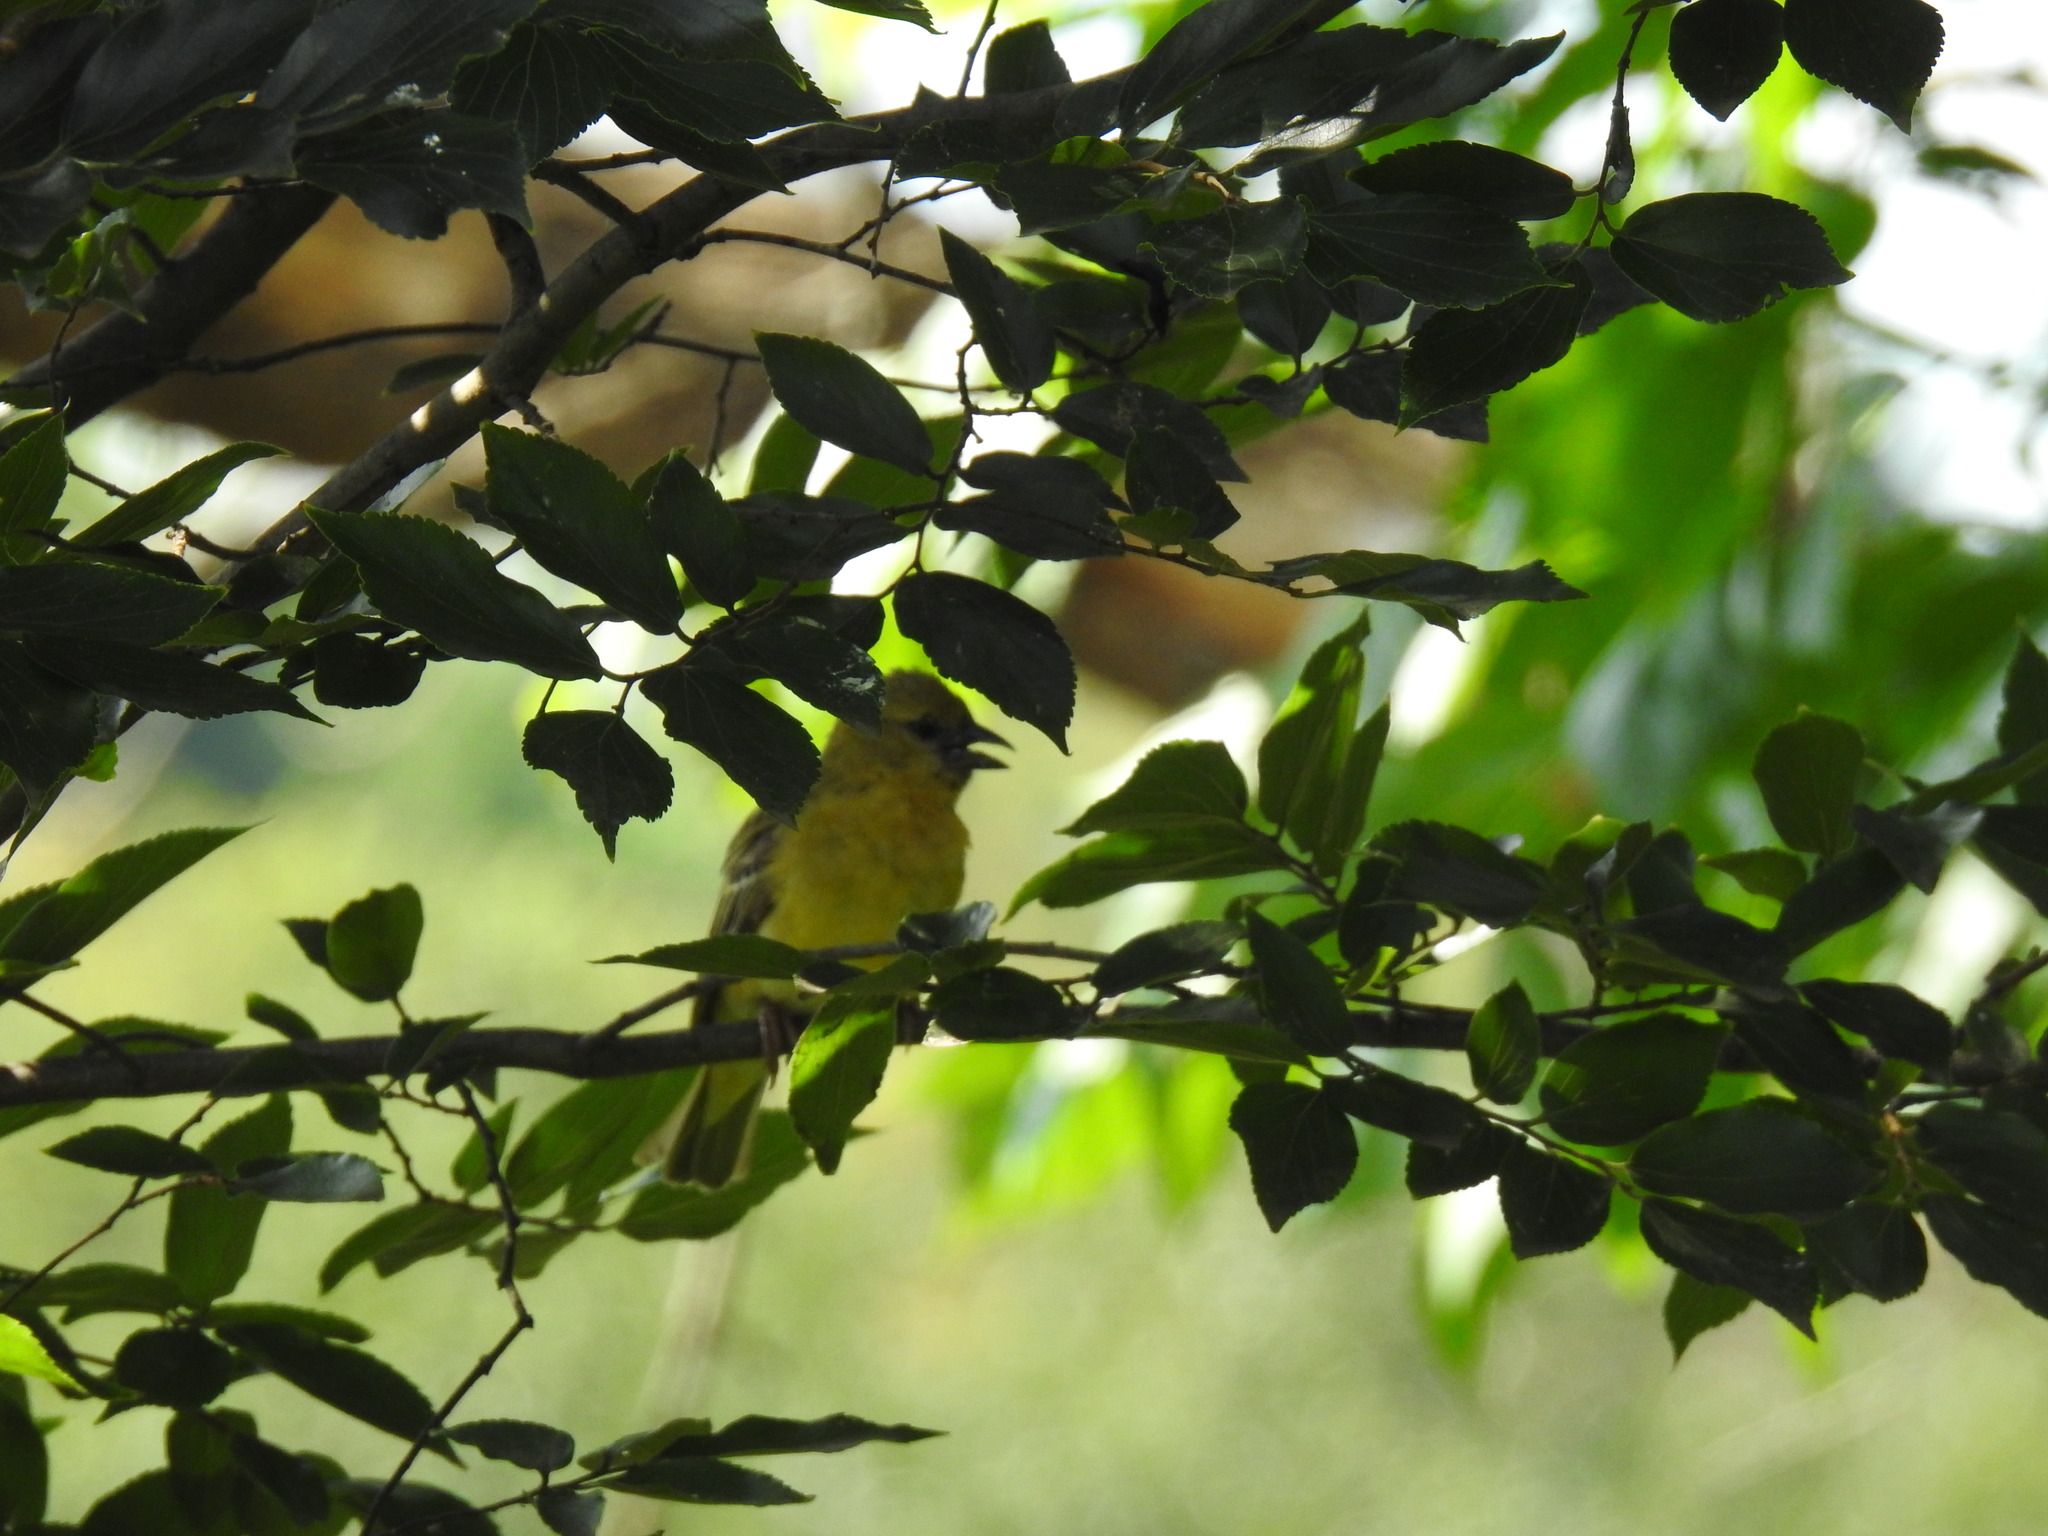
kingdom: Animalia
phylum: Chordata
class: Aves
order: Passeriformes
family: Ploceidae
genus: Ploceus
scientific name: Ploceus velatus
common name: Southern masked weaver
